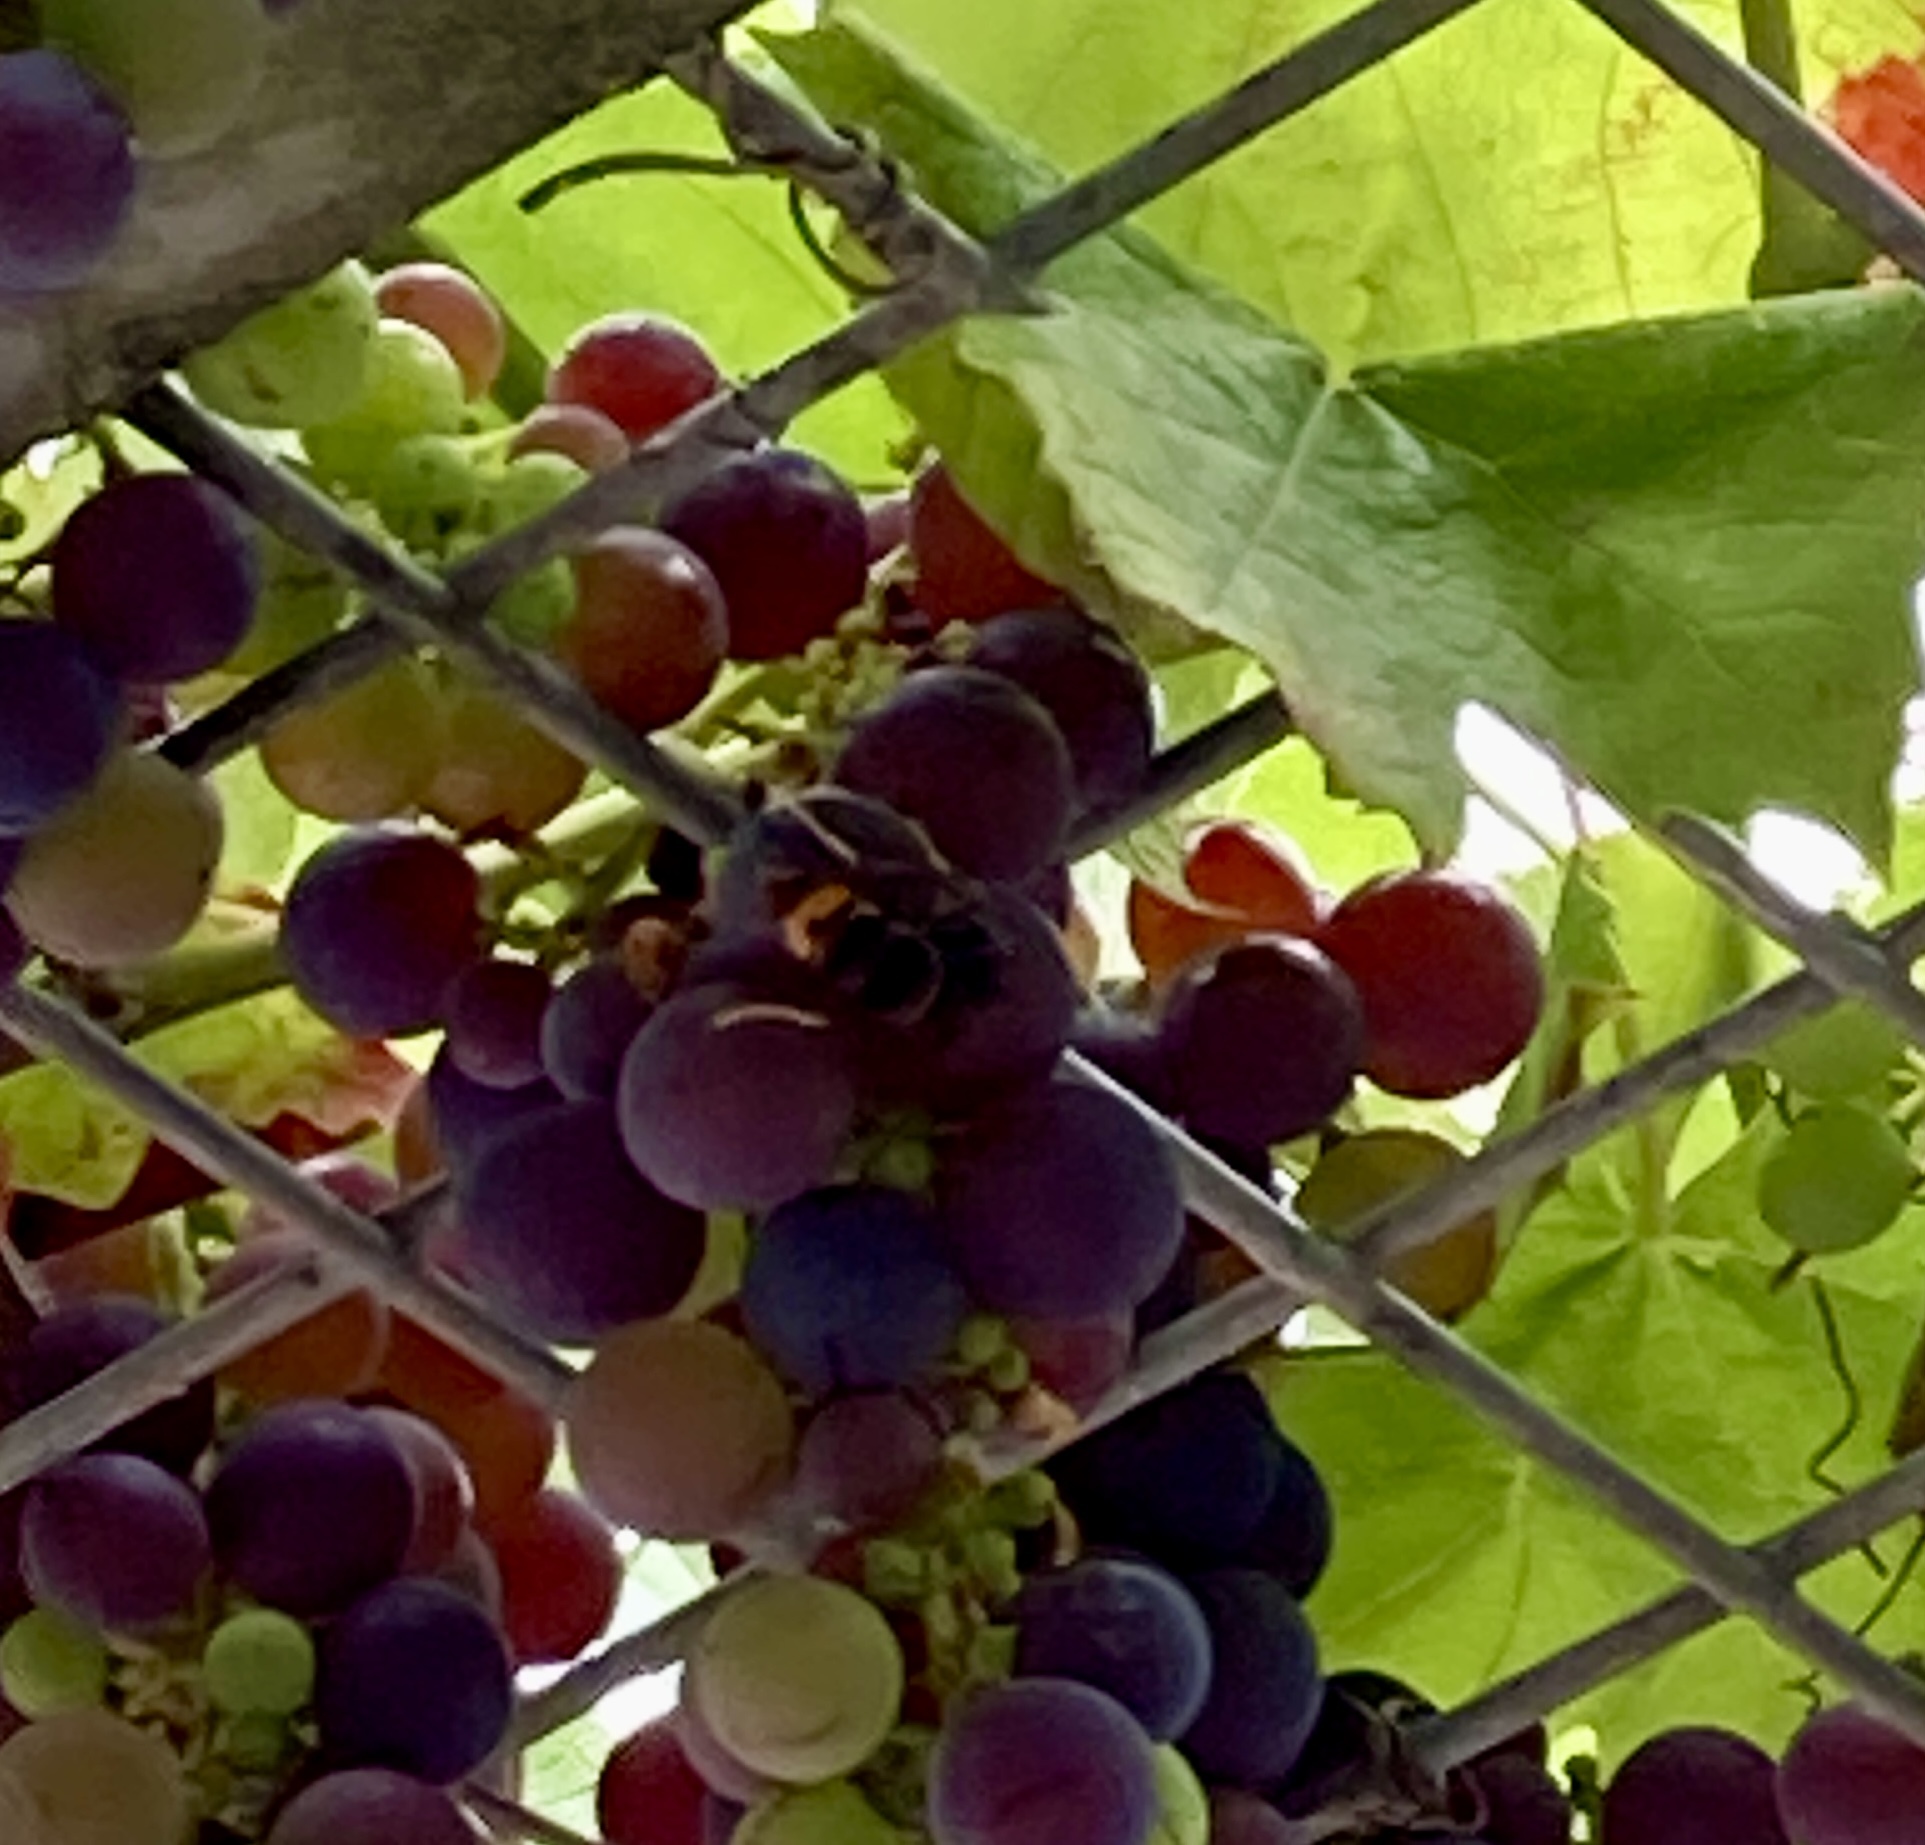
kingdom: Animalia
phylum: Arthropoda
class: Insecta
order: Hymenoptera
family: Vespidae
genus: Vespa
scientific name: Vespa velutina
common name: Asian hornet
